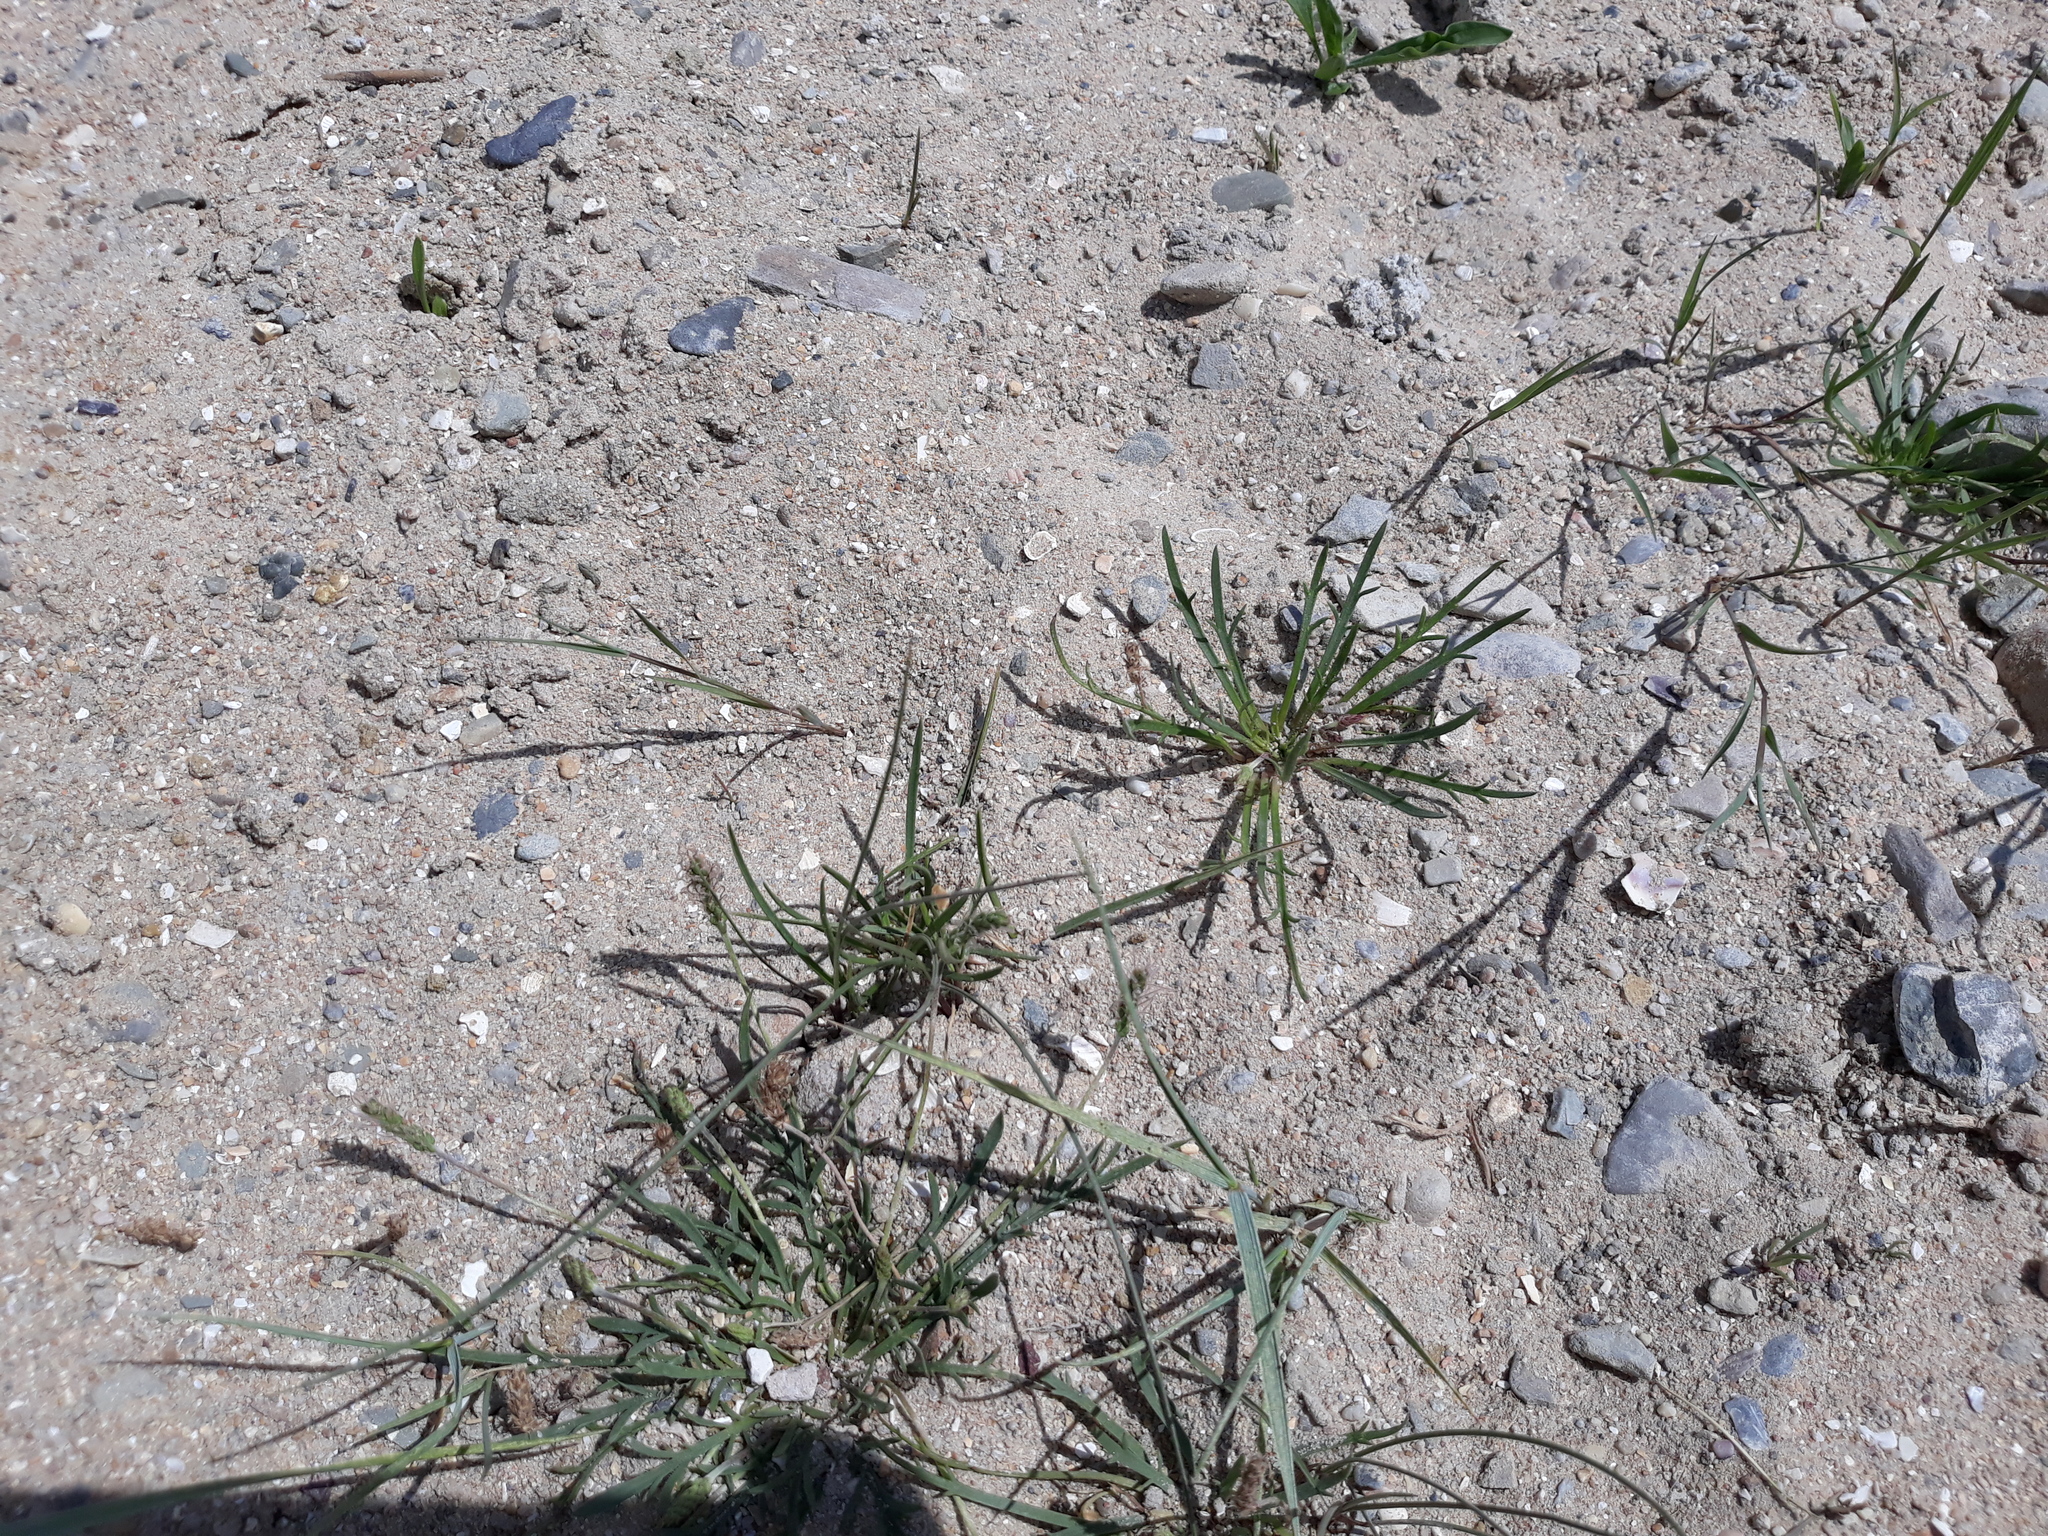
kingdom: Plantae
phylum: Tracheophyta
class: Magnoliopsida
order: Lamiales
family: Plantaginaceae
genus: Plantago
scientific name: Plantago coronopus
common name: Buck's-horn plantain
